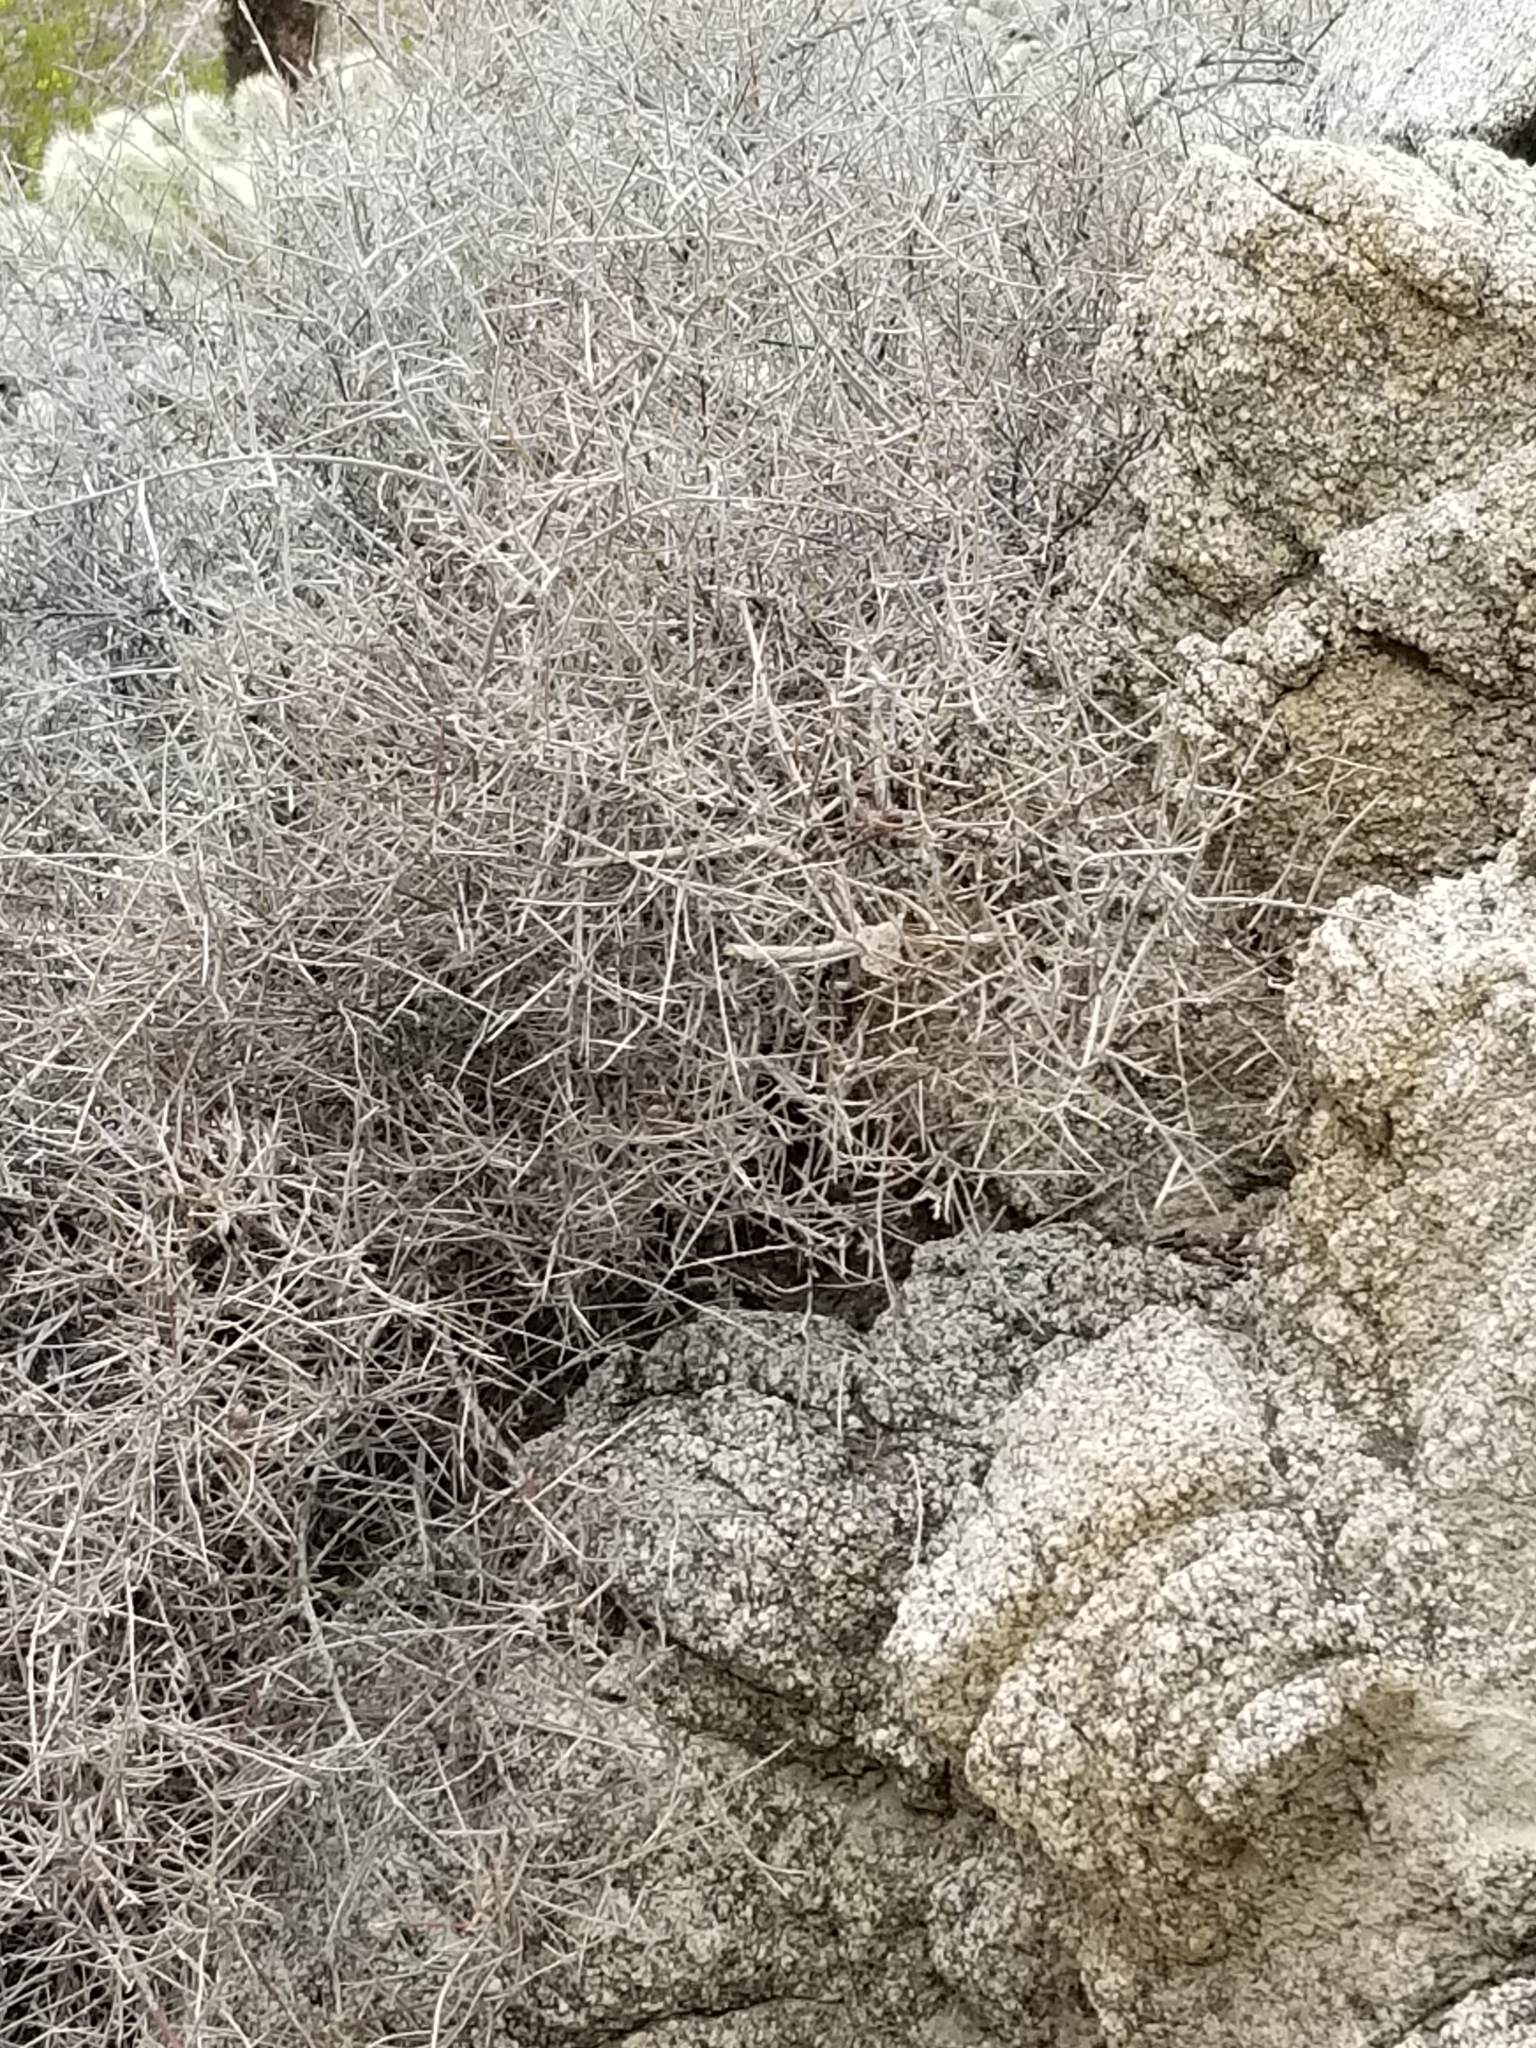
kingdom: Plantae
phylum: Tracheophyta
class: Magnoliopsida
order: Zygophyllales
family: Krameriaceae
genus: Krameria
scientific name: Krameria bicolor
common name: White ratany
